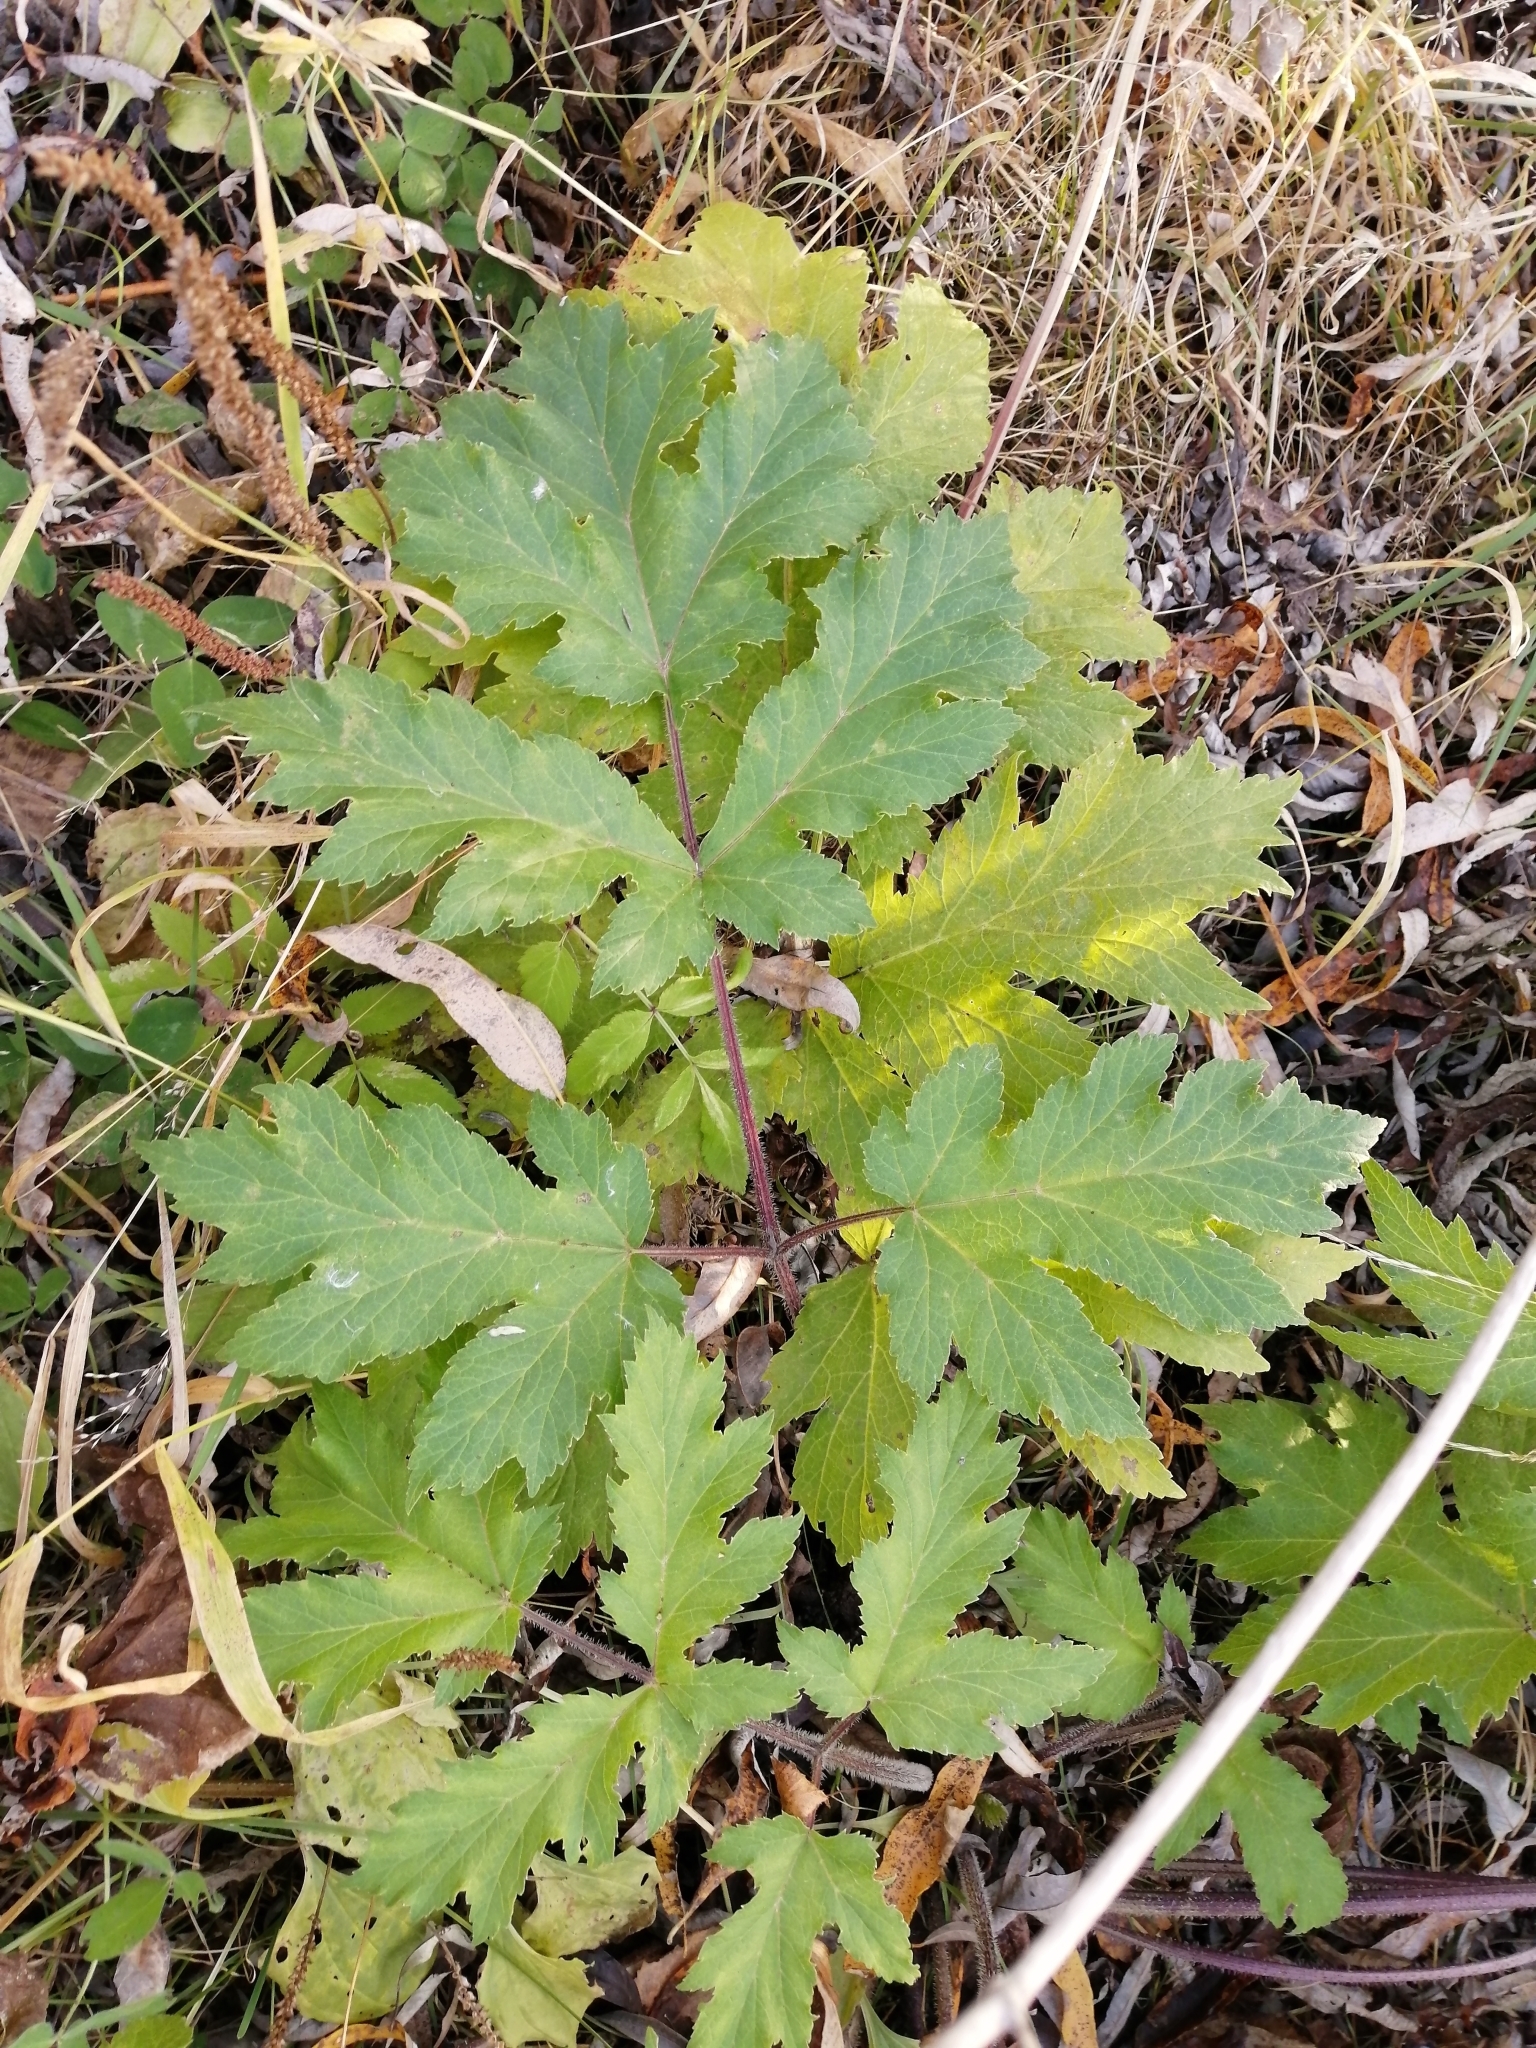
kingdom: Plantae
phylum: Tracheophyta
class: Magnoliopsida
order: Apiales
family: Apiaceae
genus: Heracleum
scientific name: Heracleum sphondylium
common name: Hogweed
